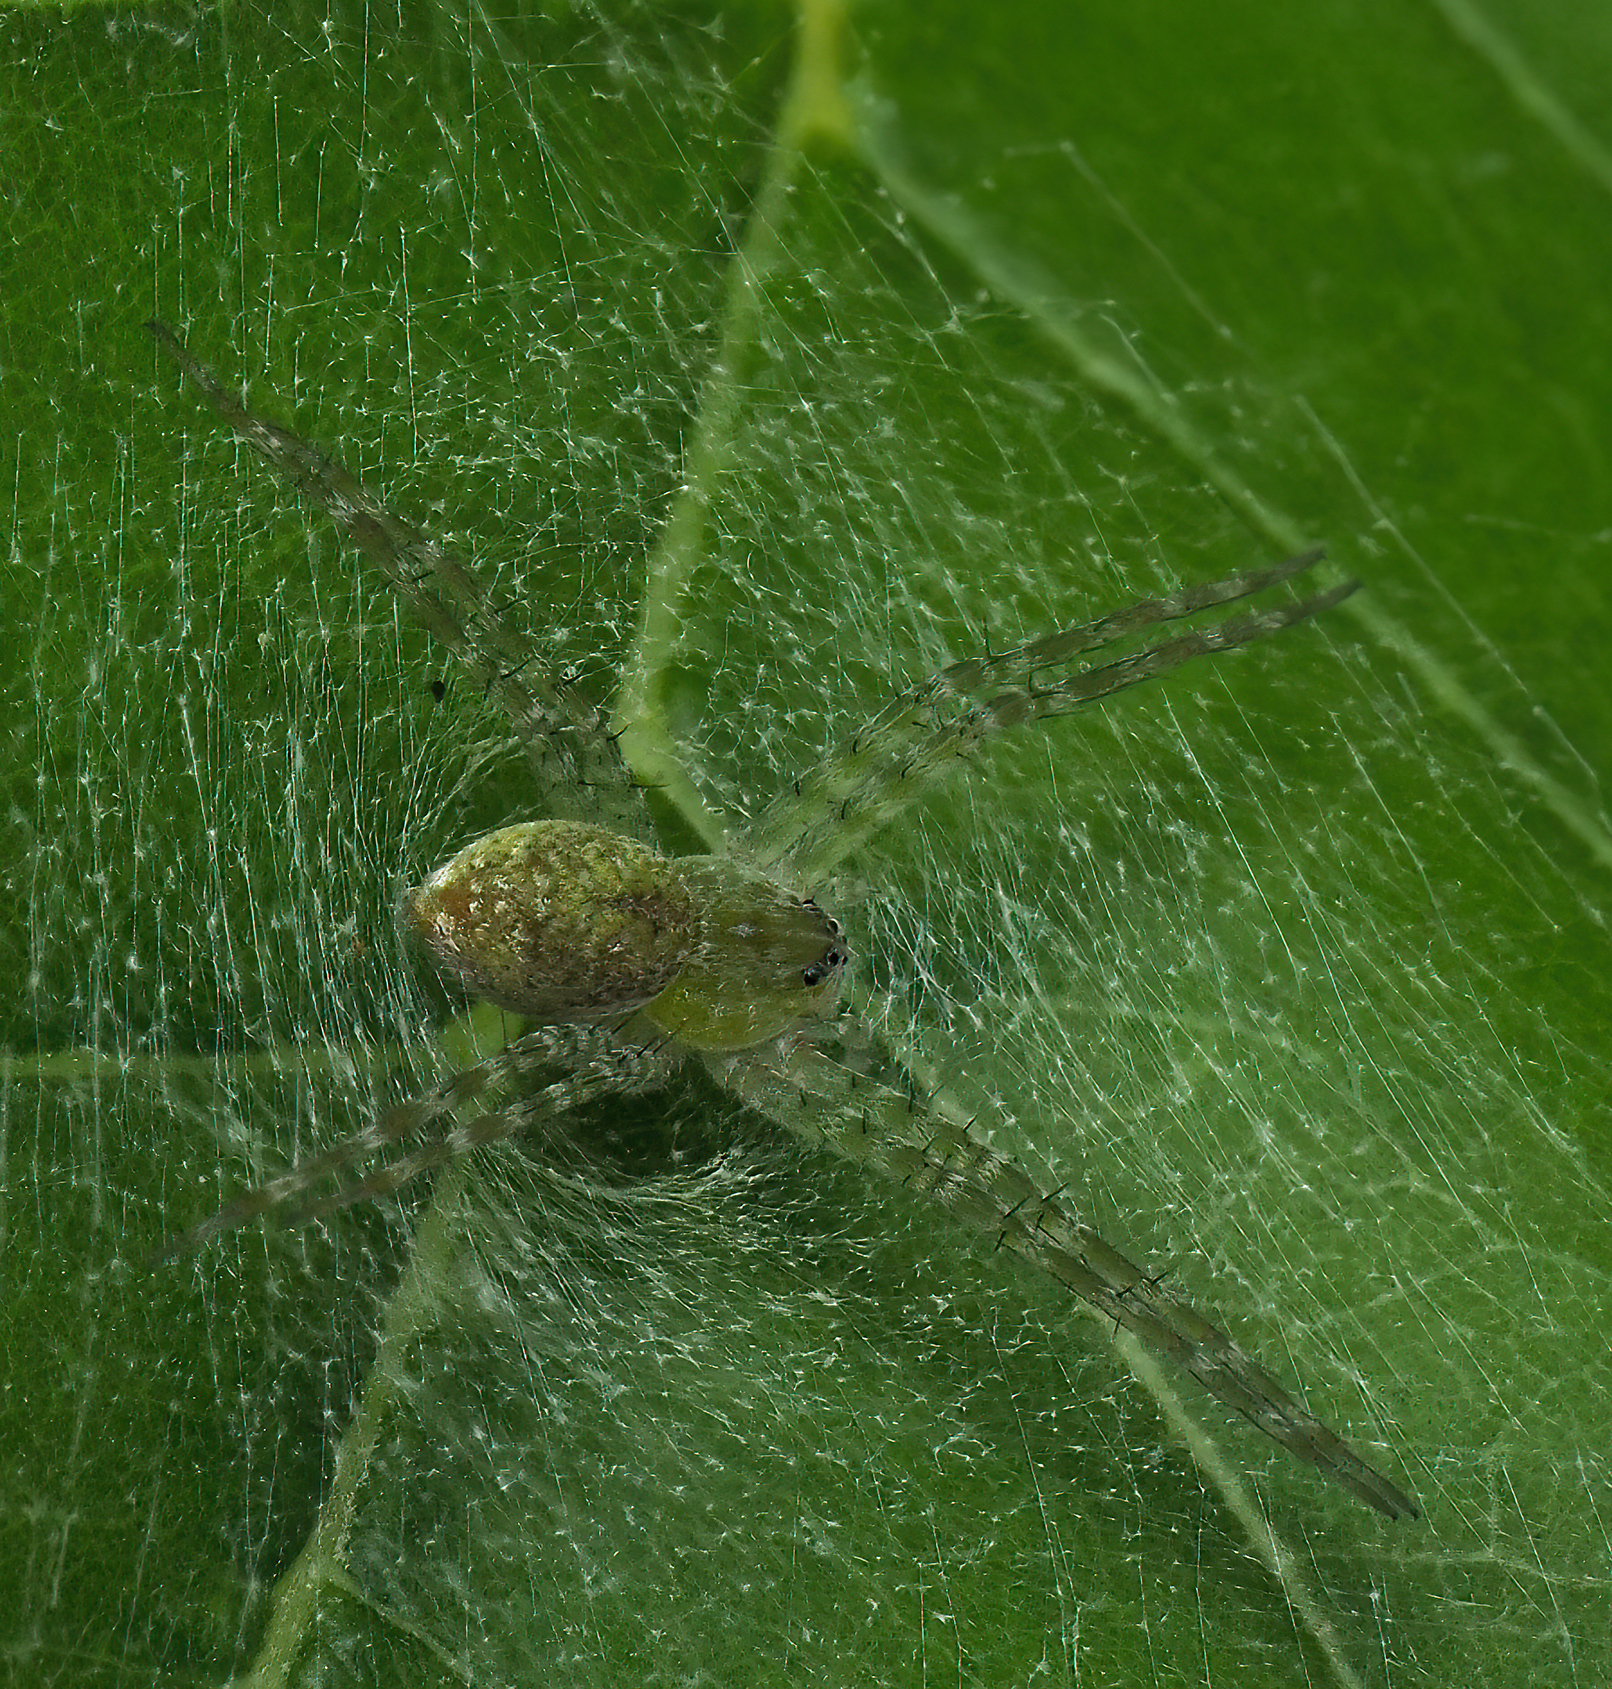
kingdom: Animalia
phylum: Arthropoda
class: Arachnida
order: Araneae
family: Pisauridae
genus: Thaumasia
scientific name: Thaumasia velox
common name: Nursery web spiders
